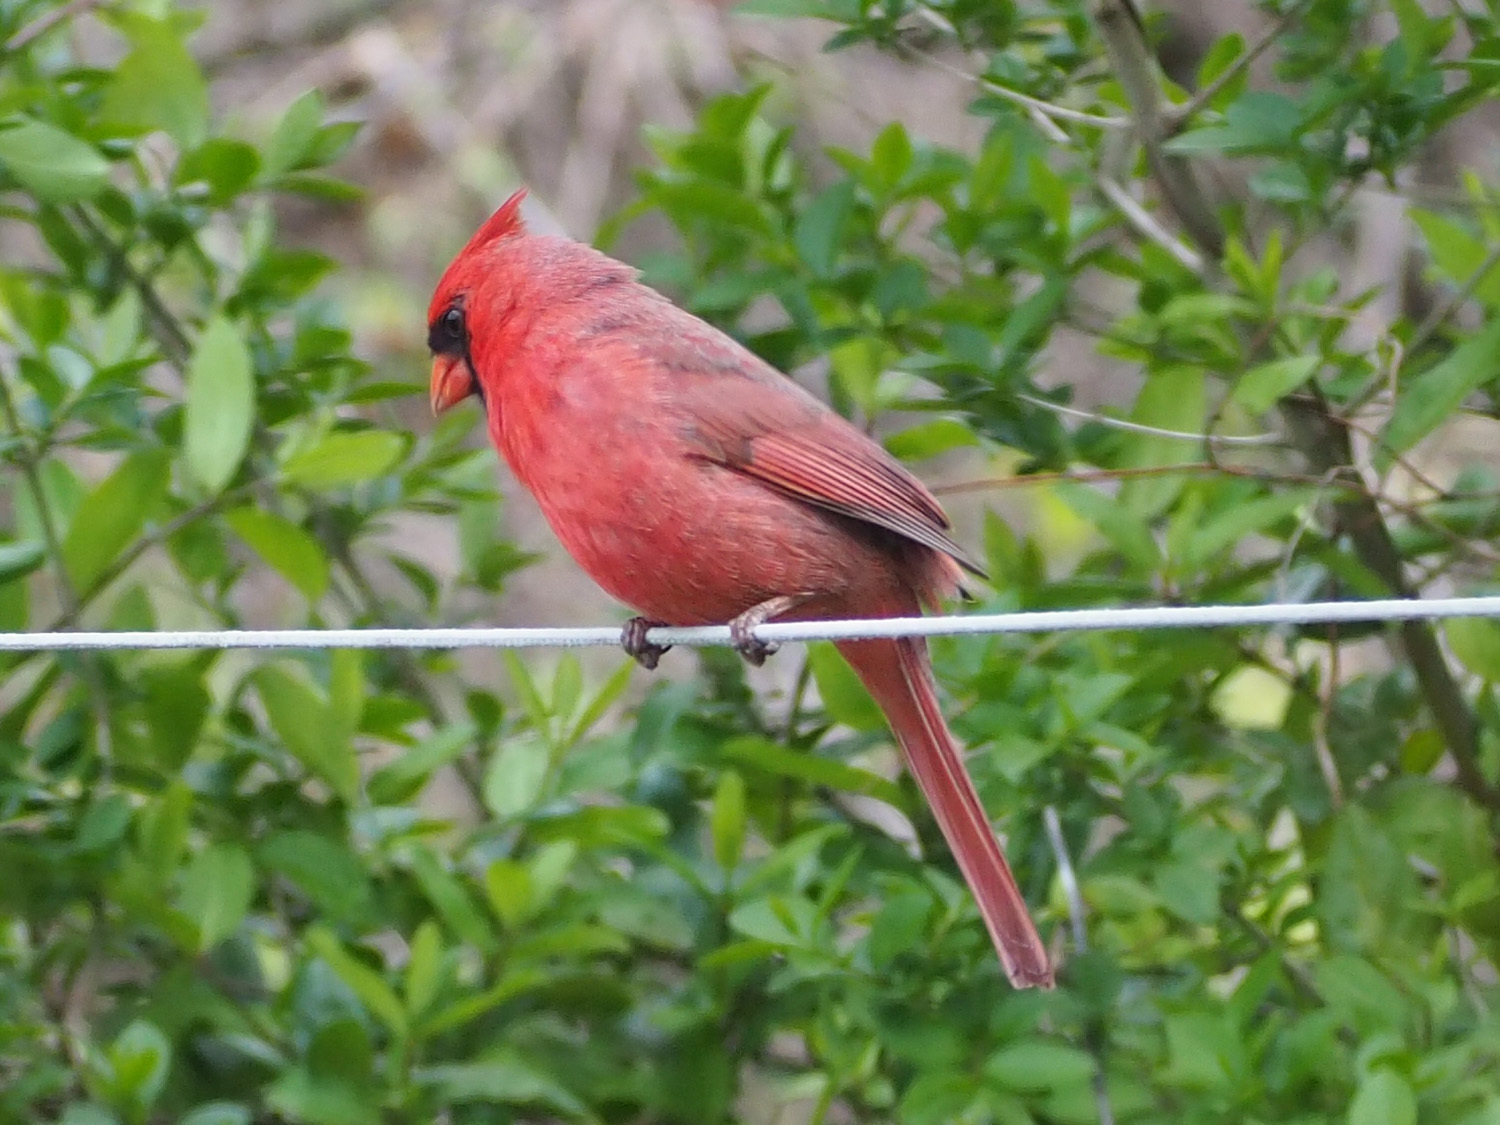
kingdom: Animalia
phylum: Chordata
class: Aves
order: Passeriformes
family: Cardinalidae
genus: Cardinalis
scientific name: Cardinalis cardinalis
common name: Northern cardinal
